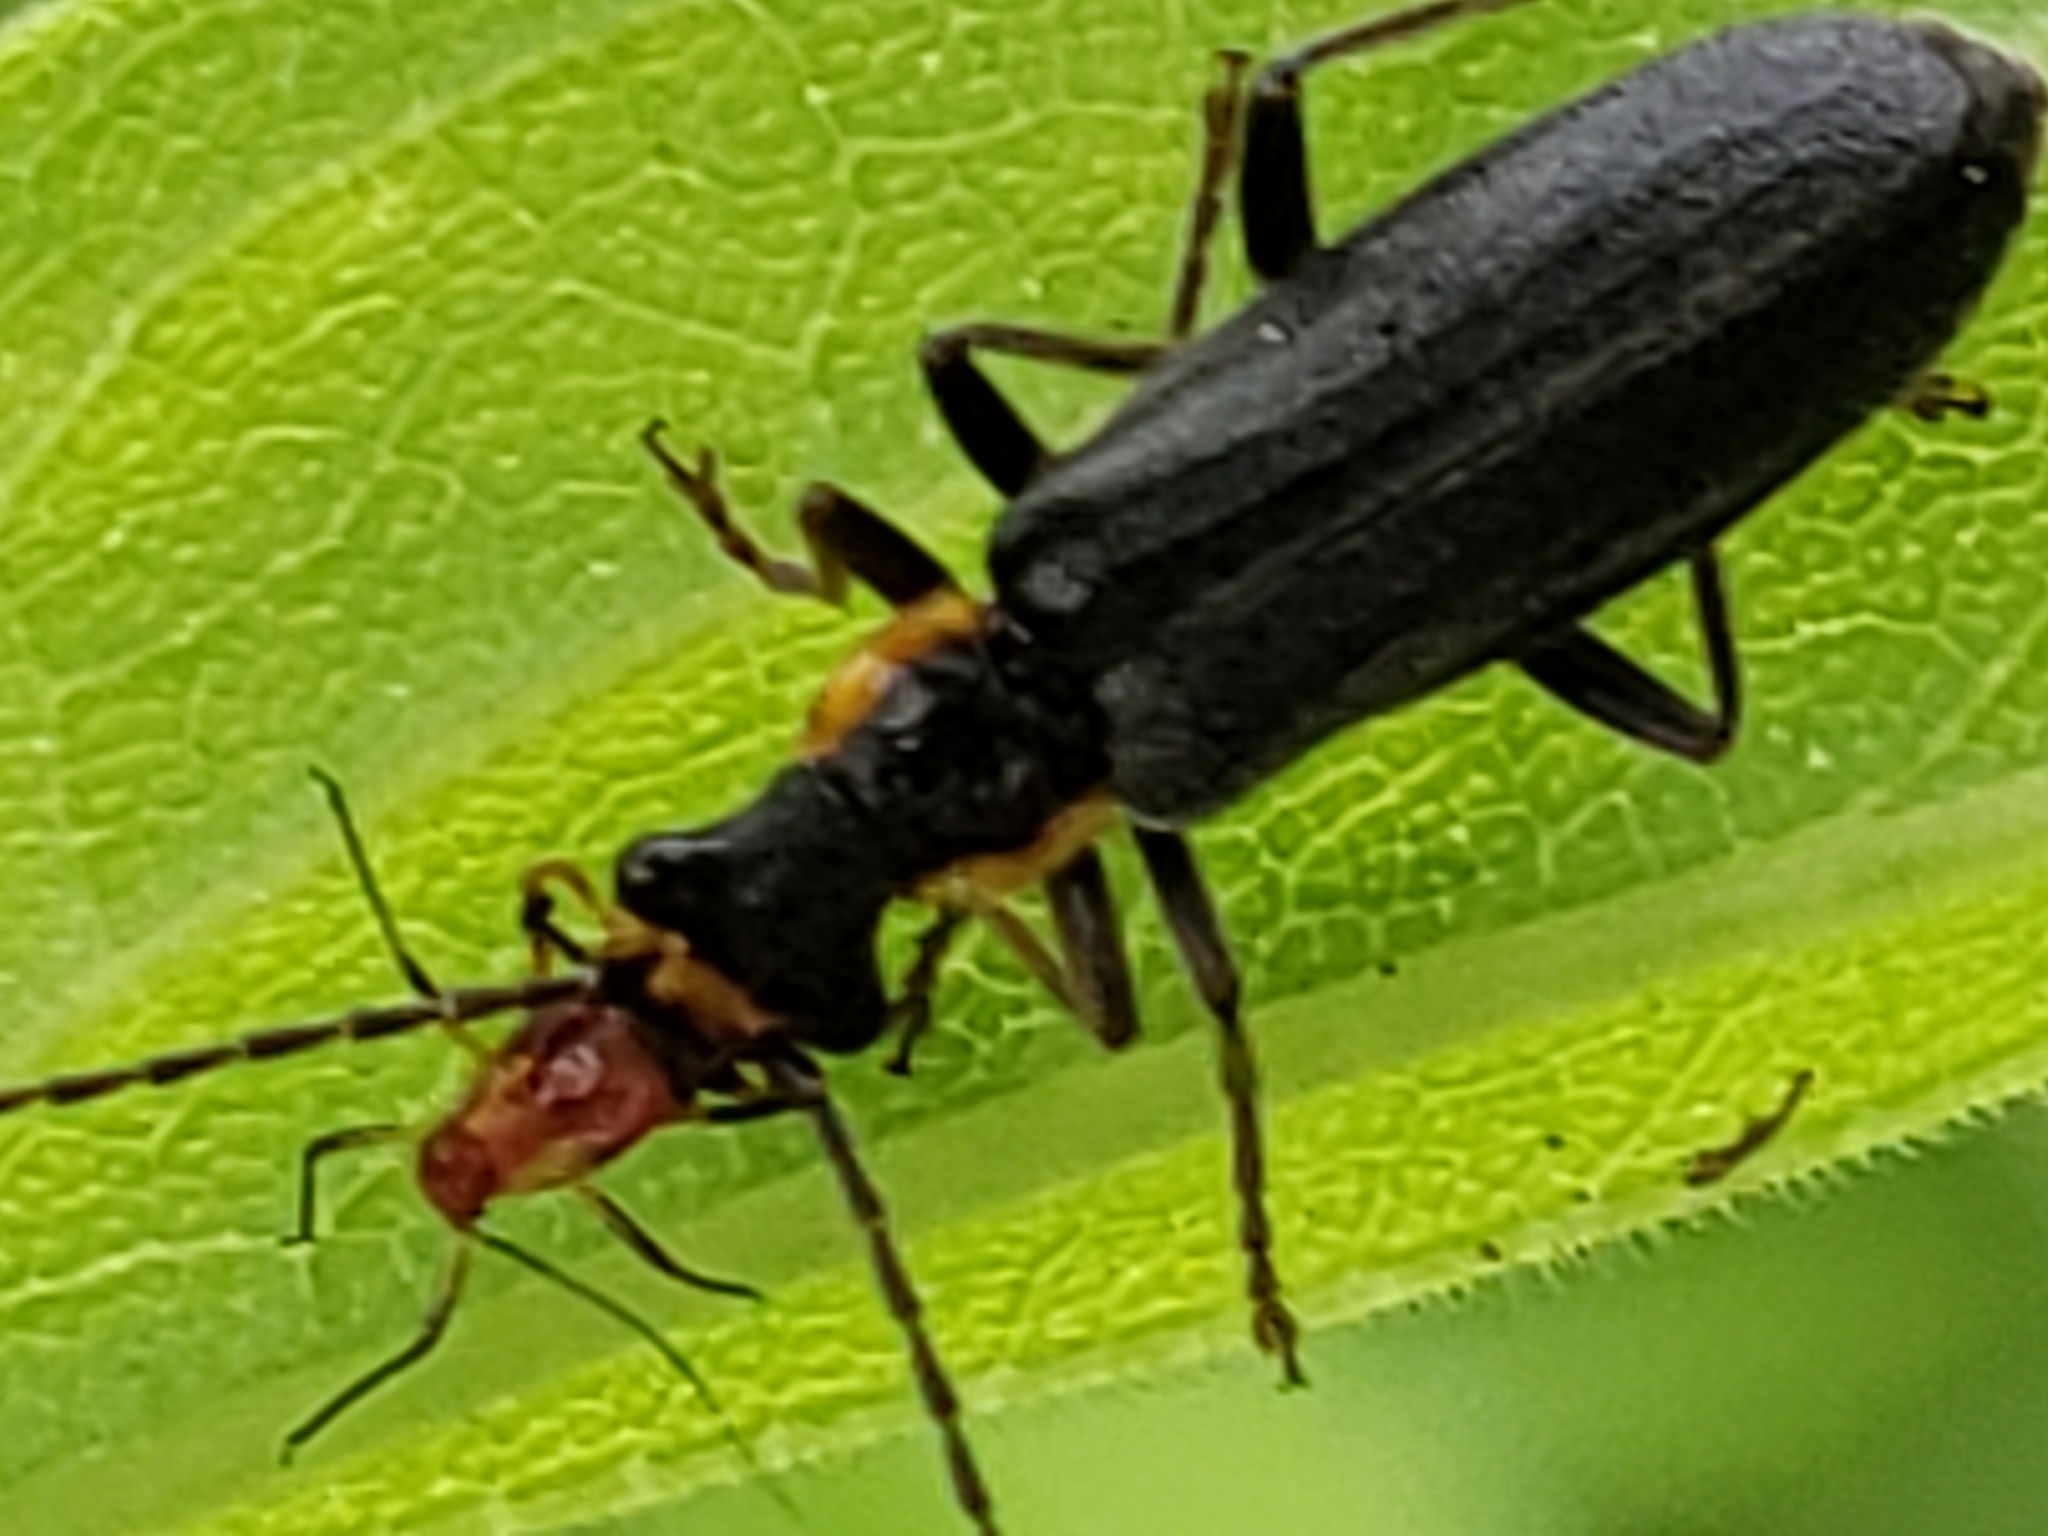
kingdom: Animalia
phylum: Arthropoda
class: Insecta
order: Coleoptera
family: Cantharidae
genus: Podabrus
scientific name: Podabrus rugosulus
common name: Wrinkled soldier beetle
